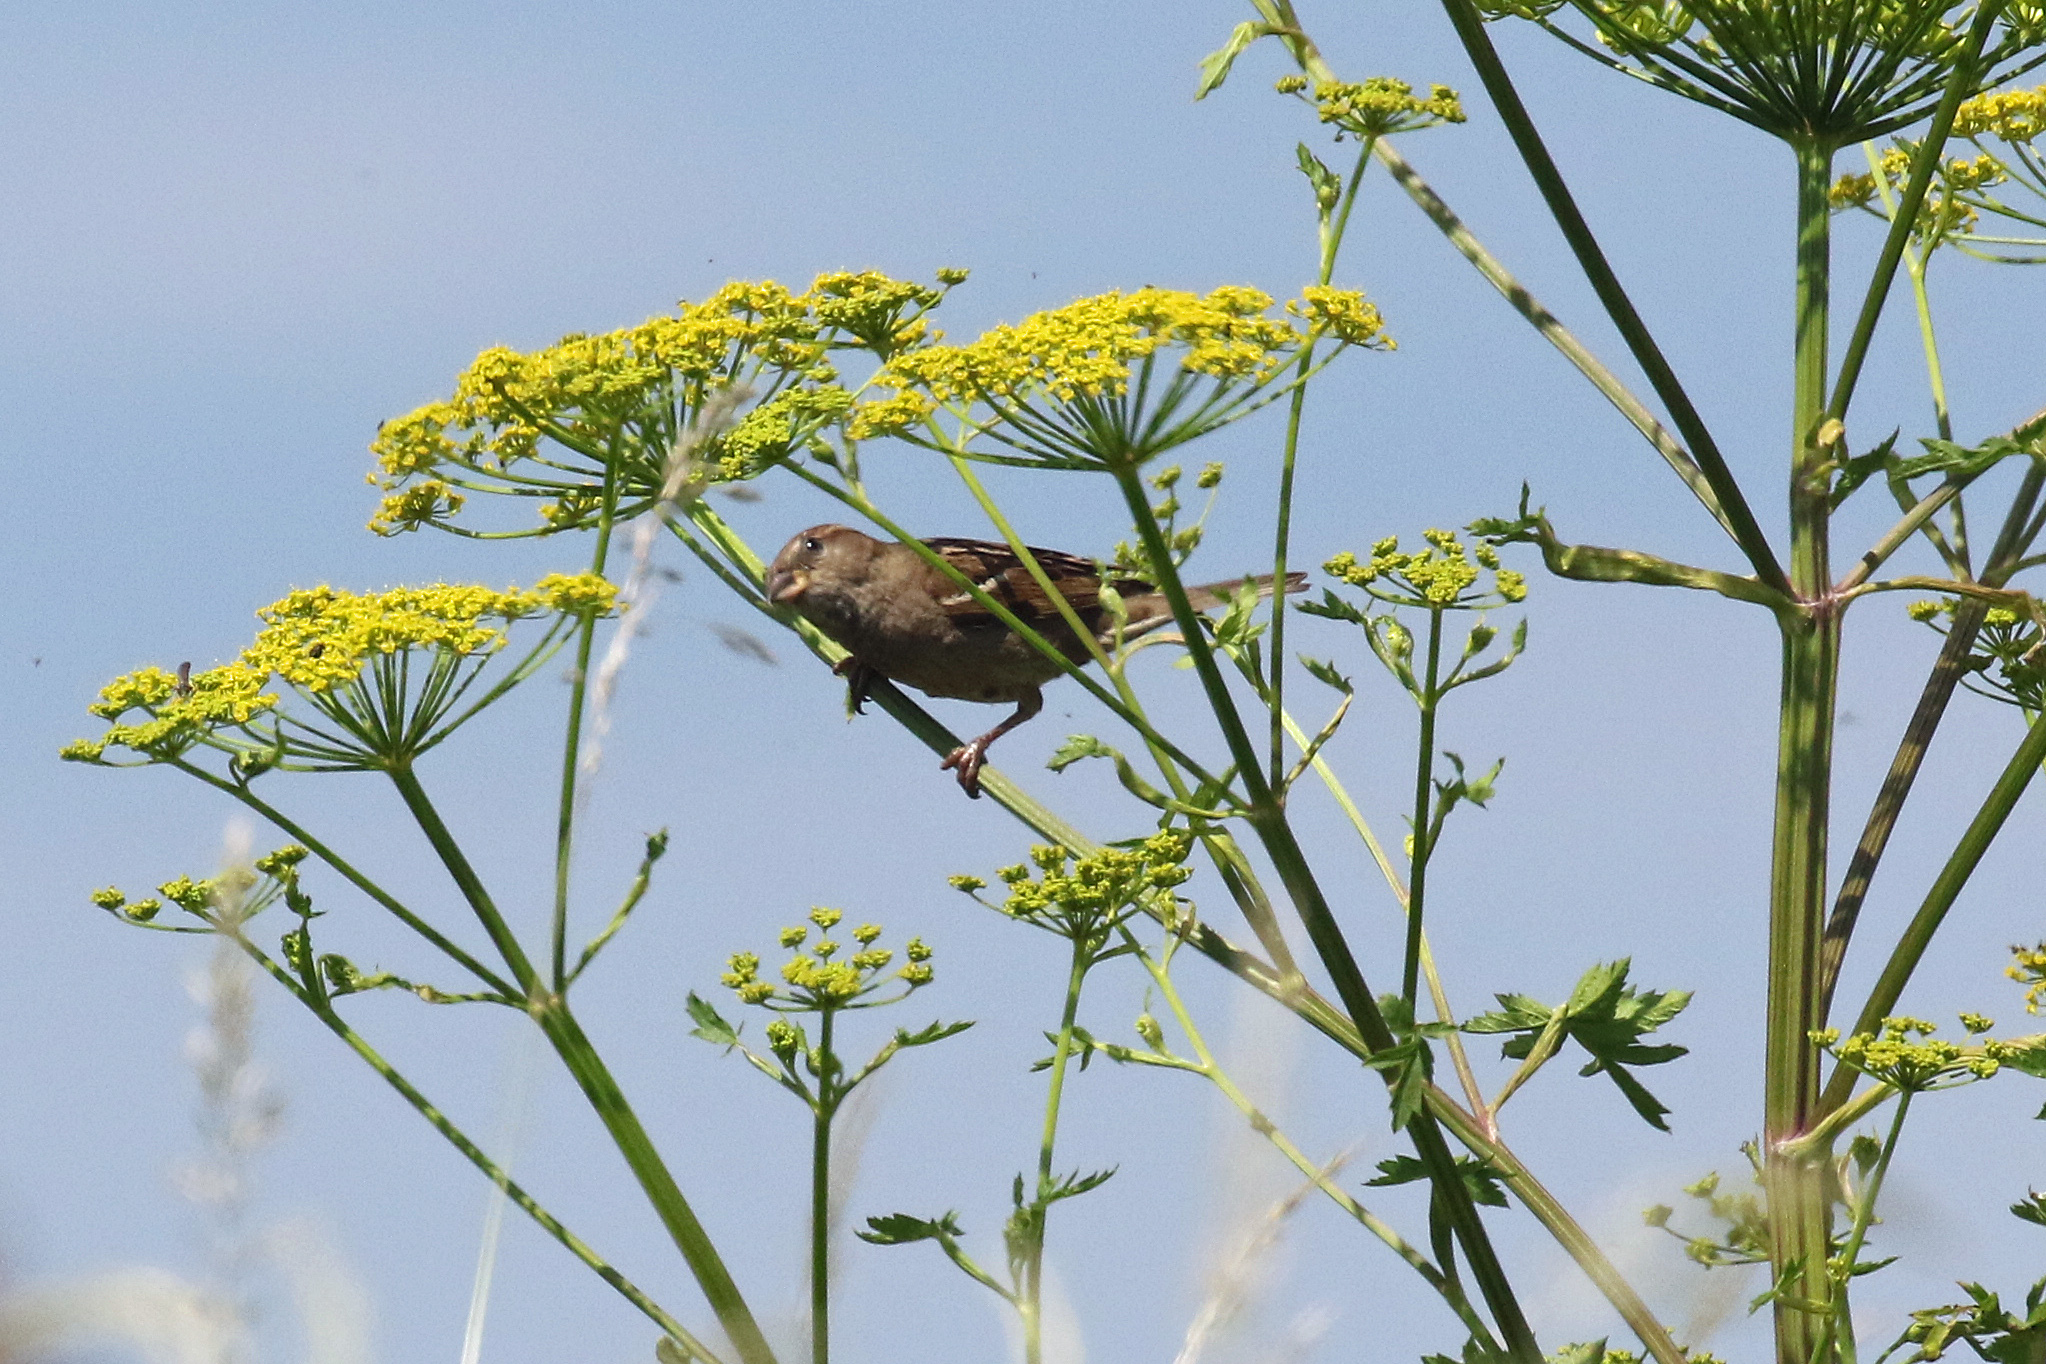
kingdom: Animalia
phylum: Chordata
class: Aves
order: Passeriformes
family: Passeridae
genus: Passer
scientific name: Passer domesticus
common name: House sparrow
